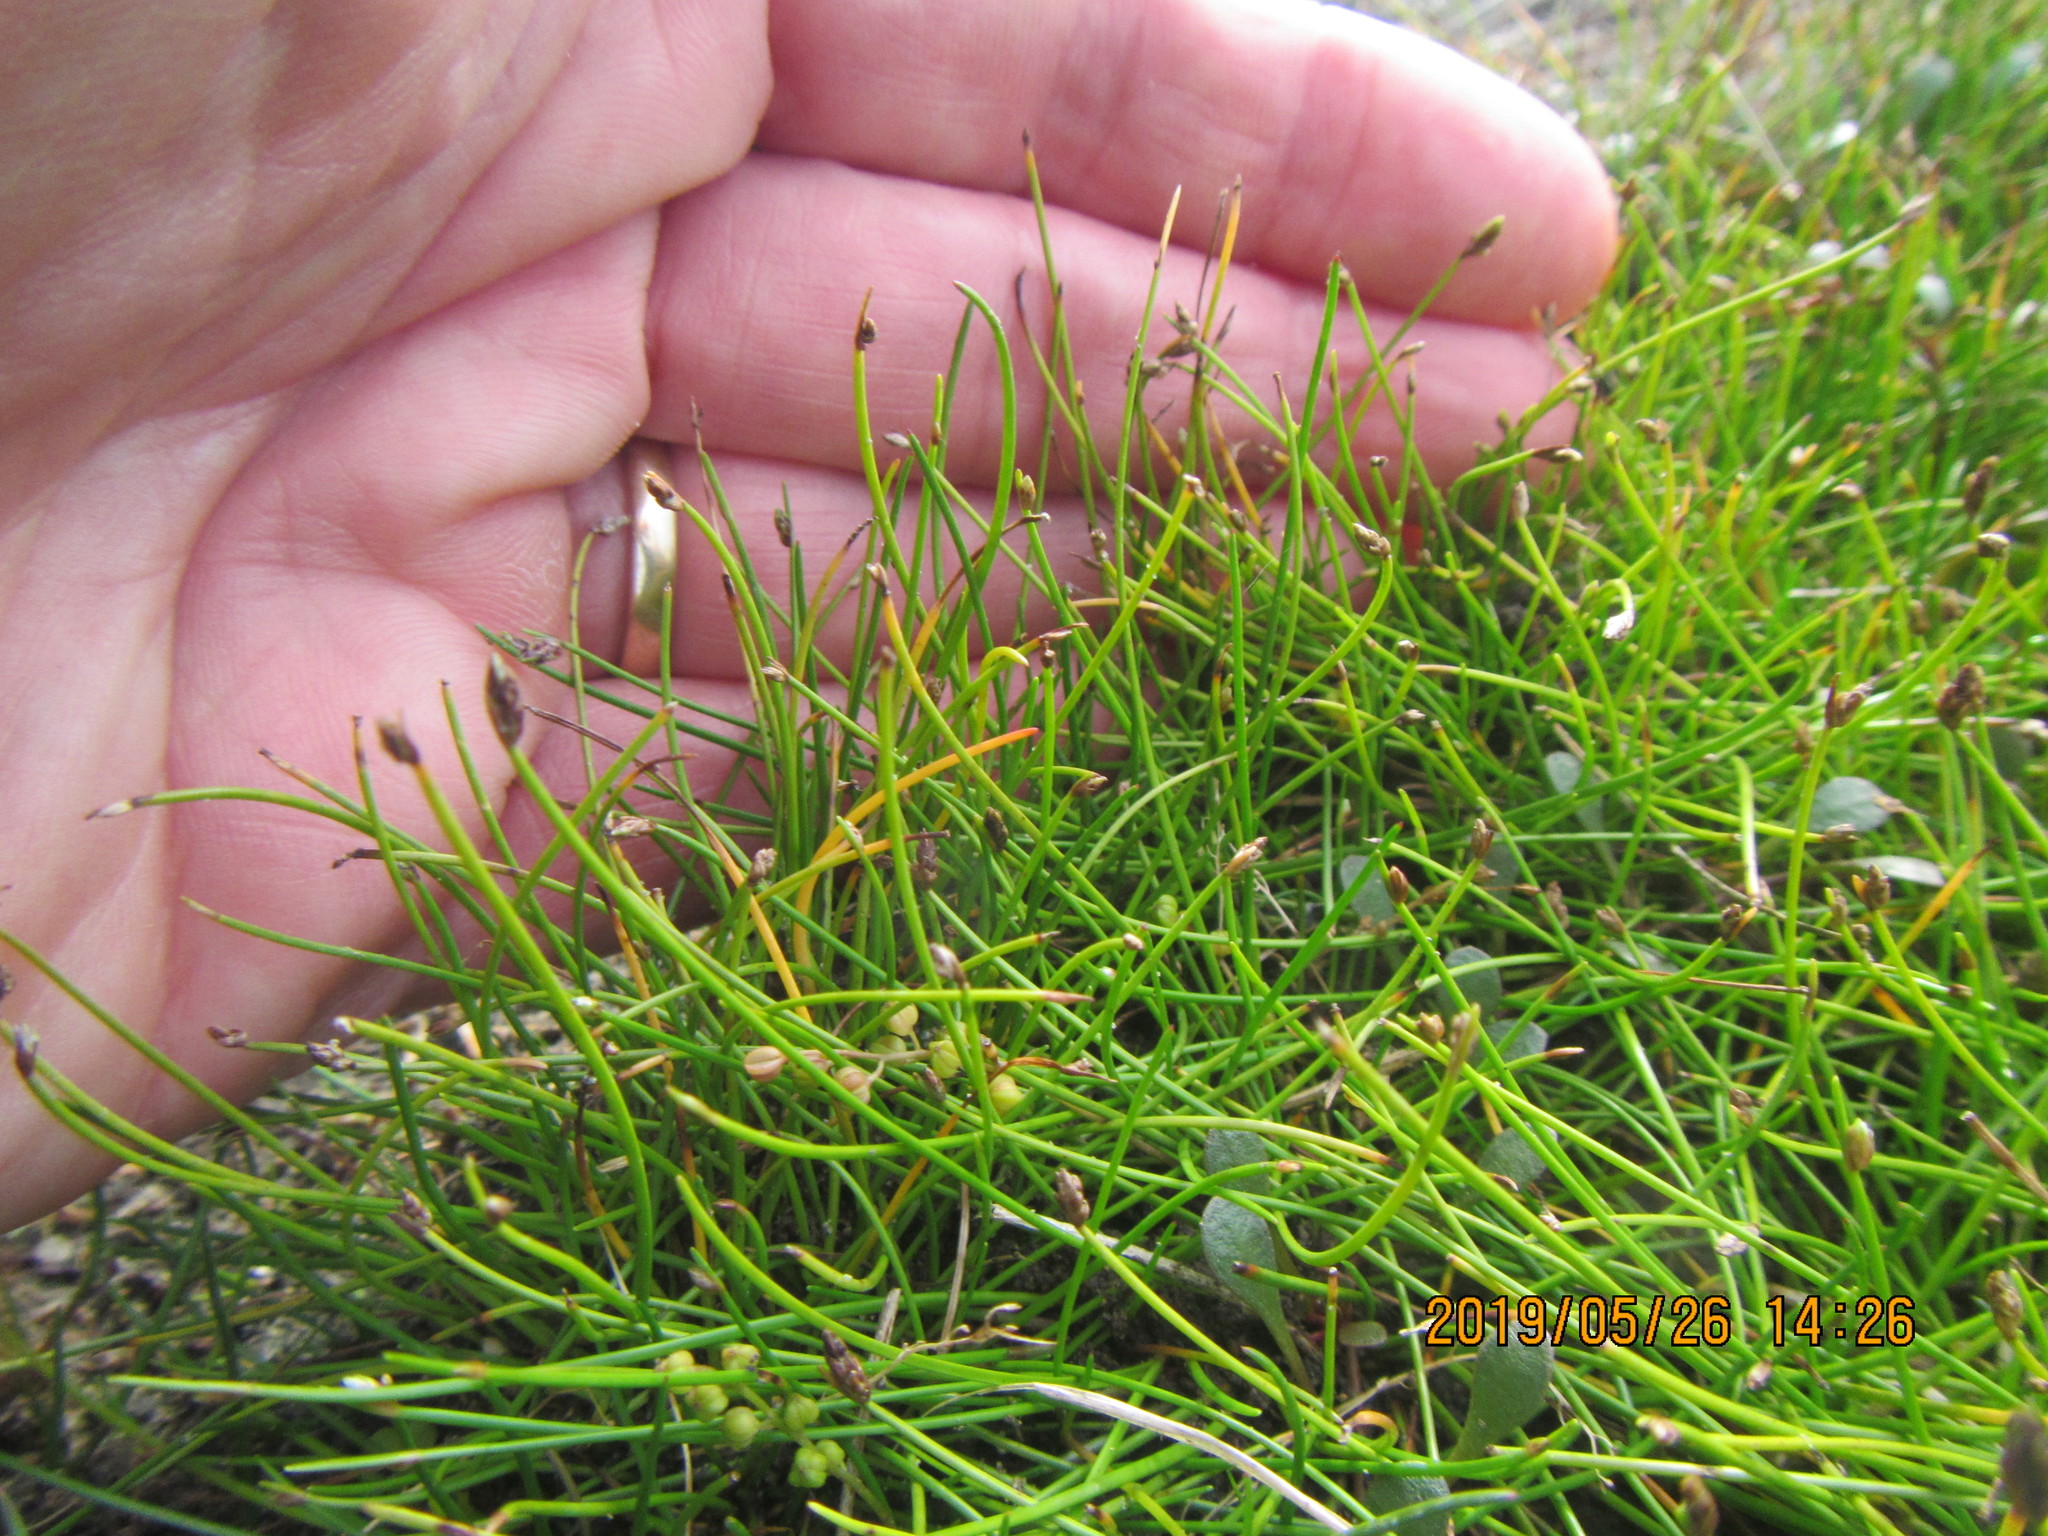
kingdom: Plantae
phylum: Tracheophyta
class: Liliopsida
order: Poales
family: Cyperaceae
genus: Isolepis
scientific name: Isolepis cernua
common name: Slender club-rush
